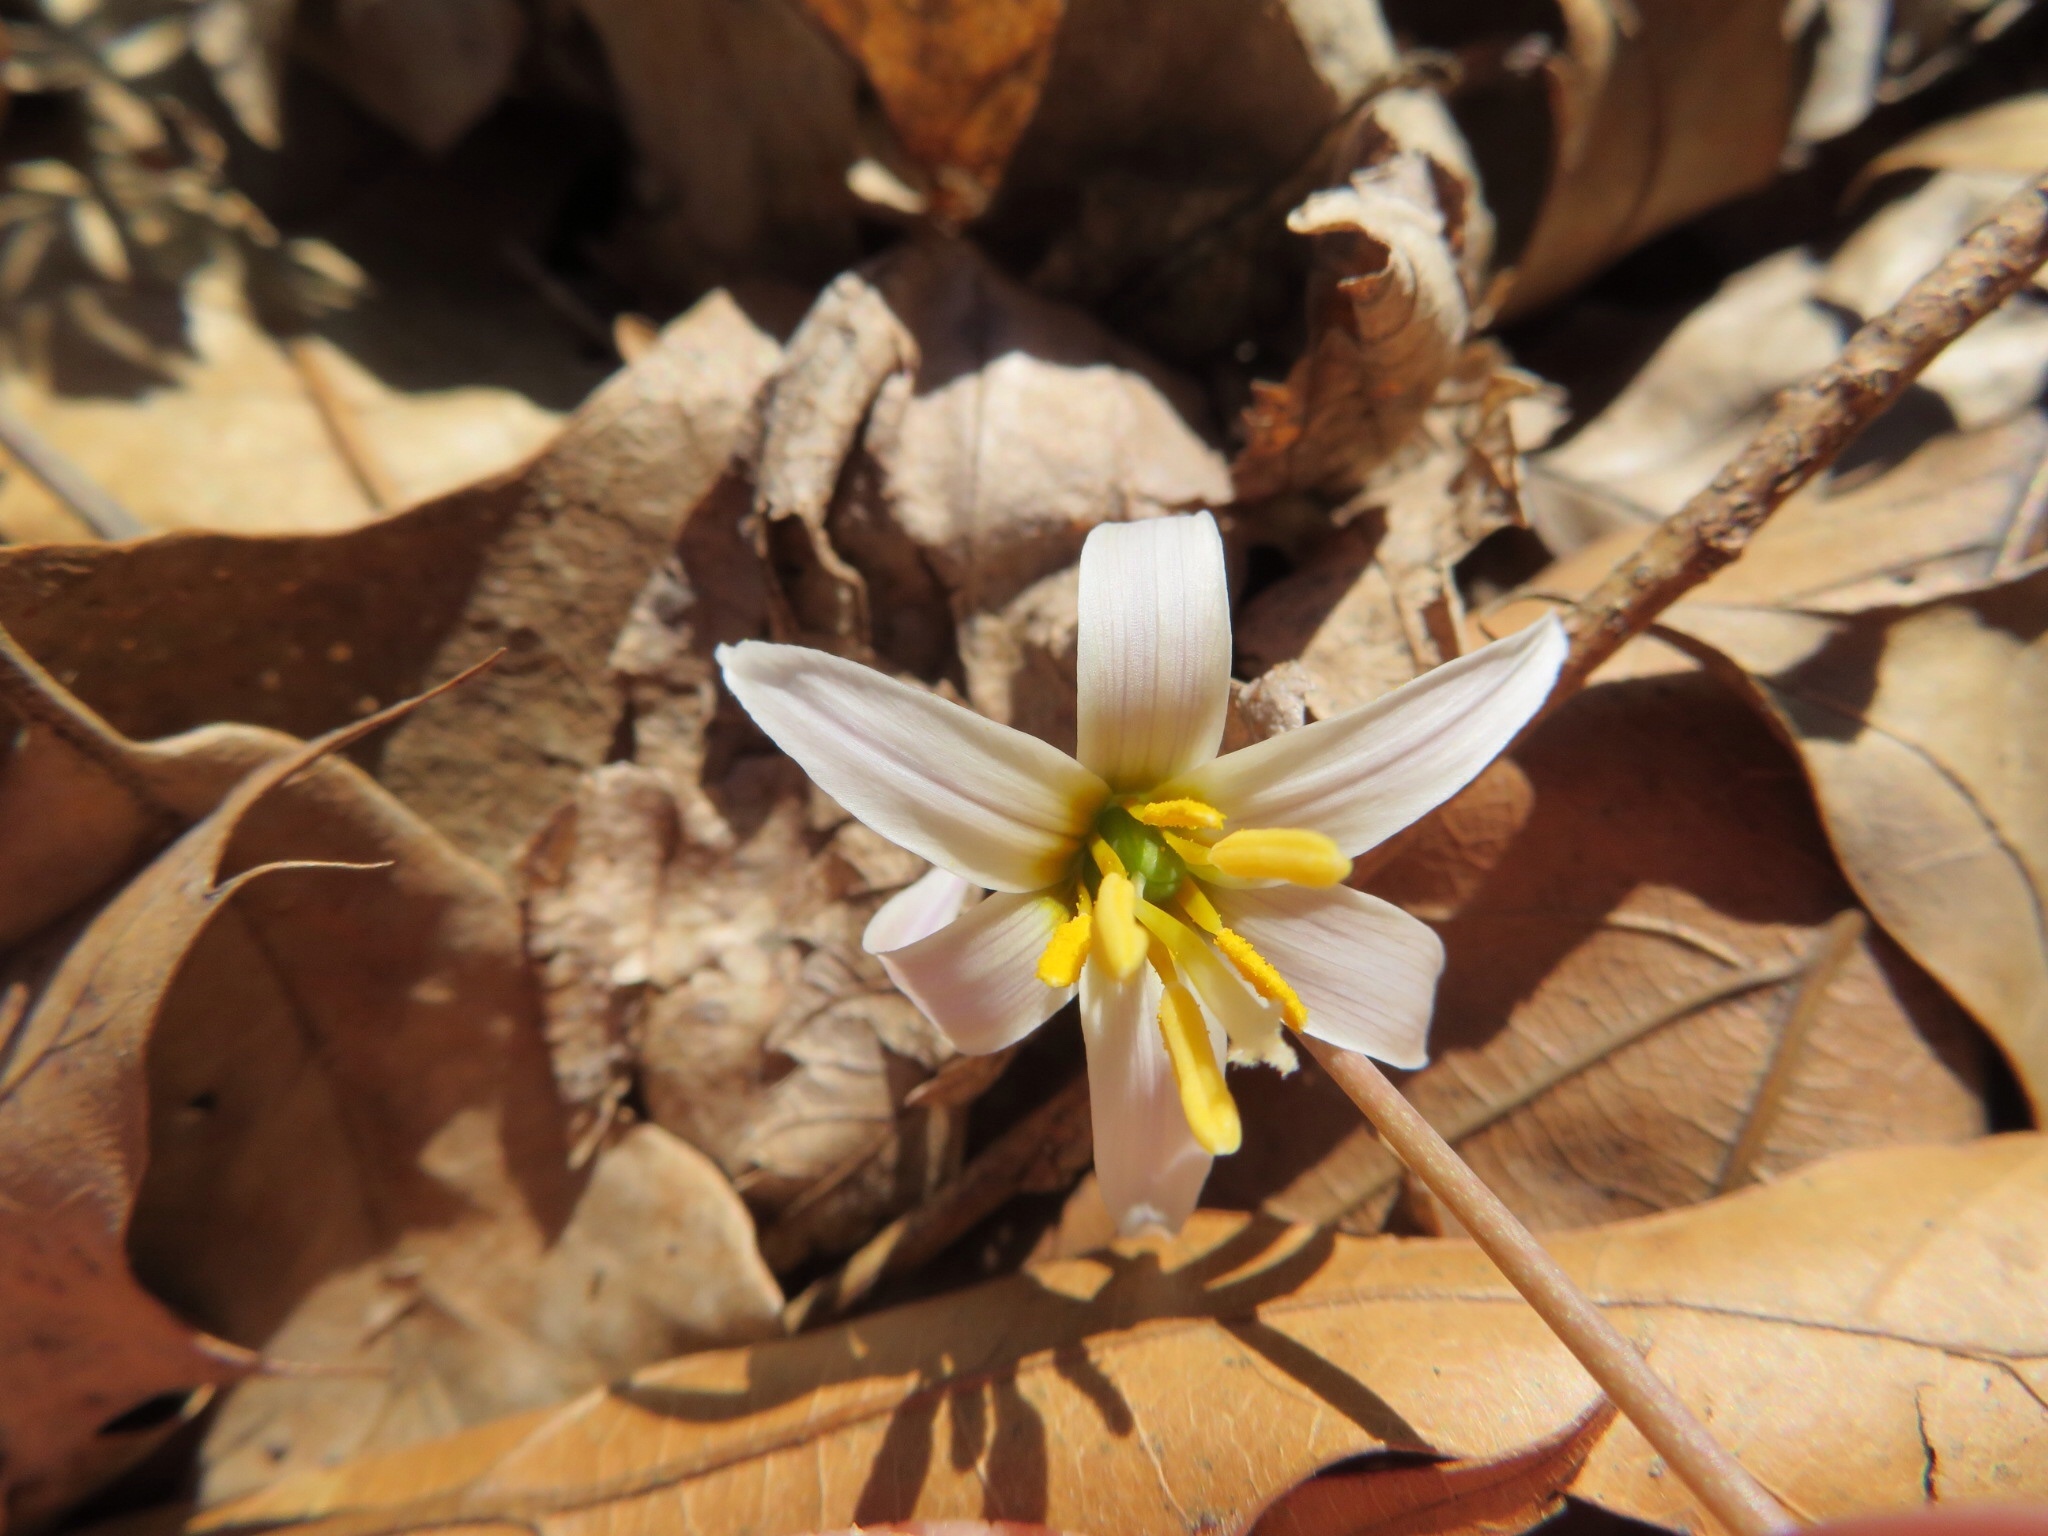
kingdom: Plantae
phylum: Tracheophyta
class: Liliopsida
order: Liliales
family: Liliaceae
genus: Erythronium
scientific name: Erythronium albidum
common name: White trout-lily
